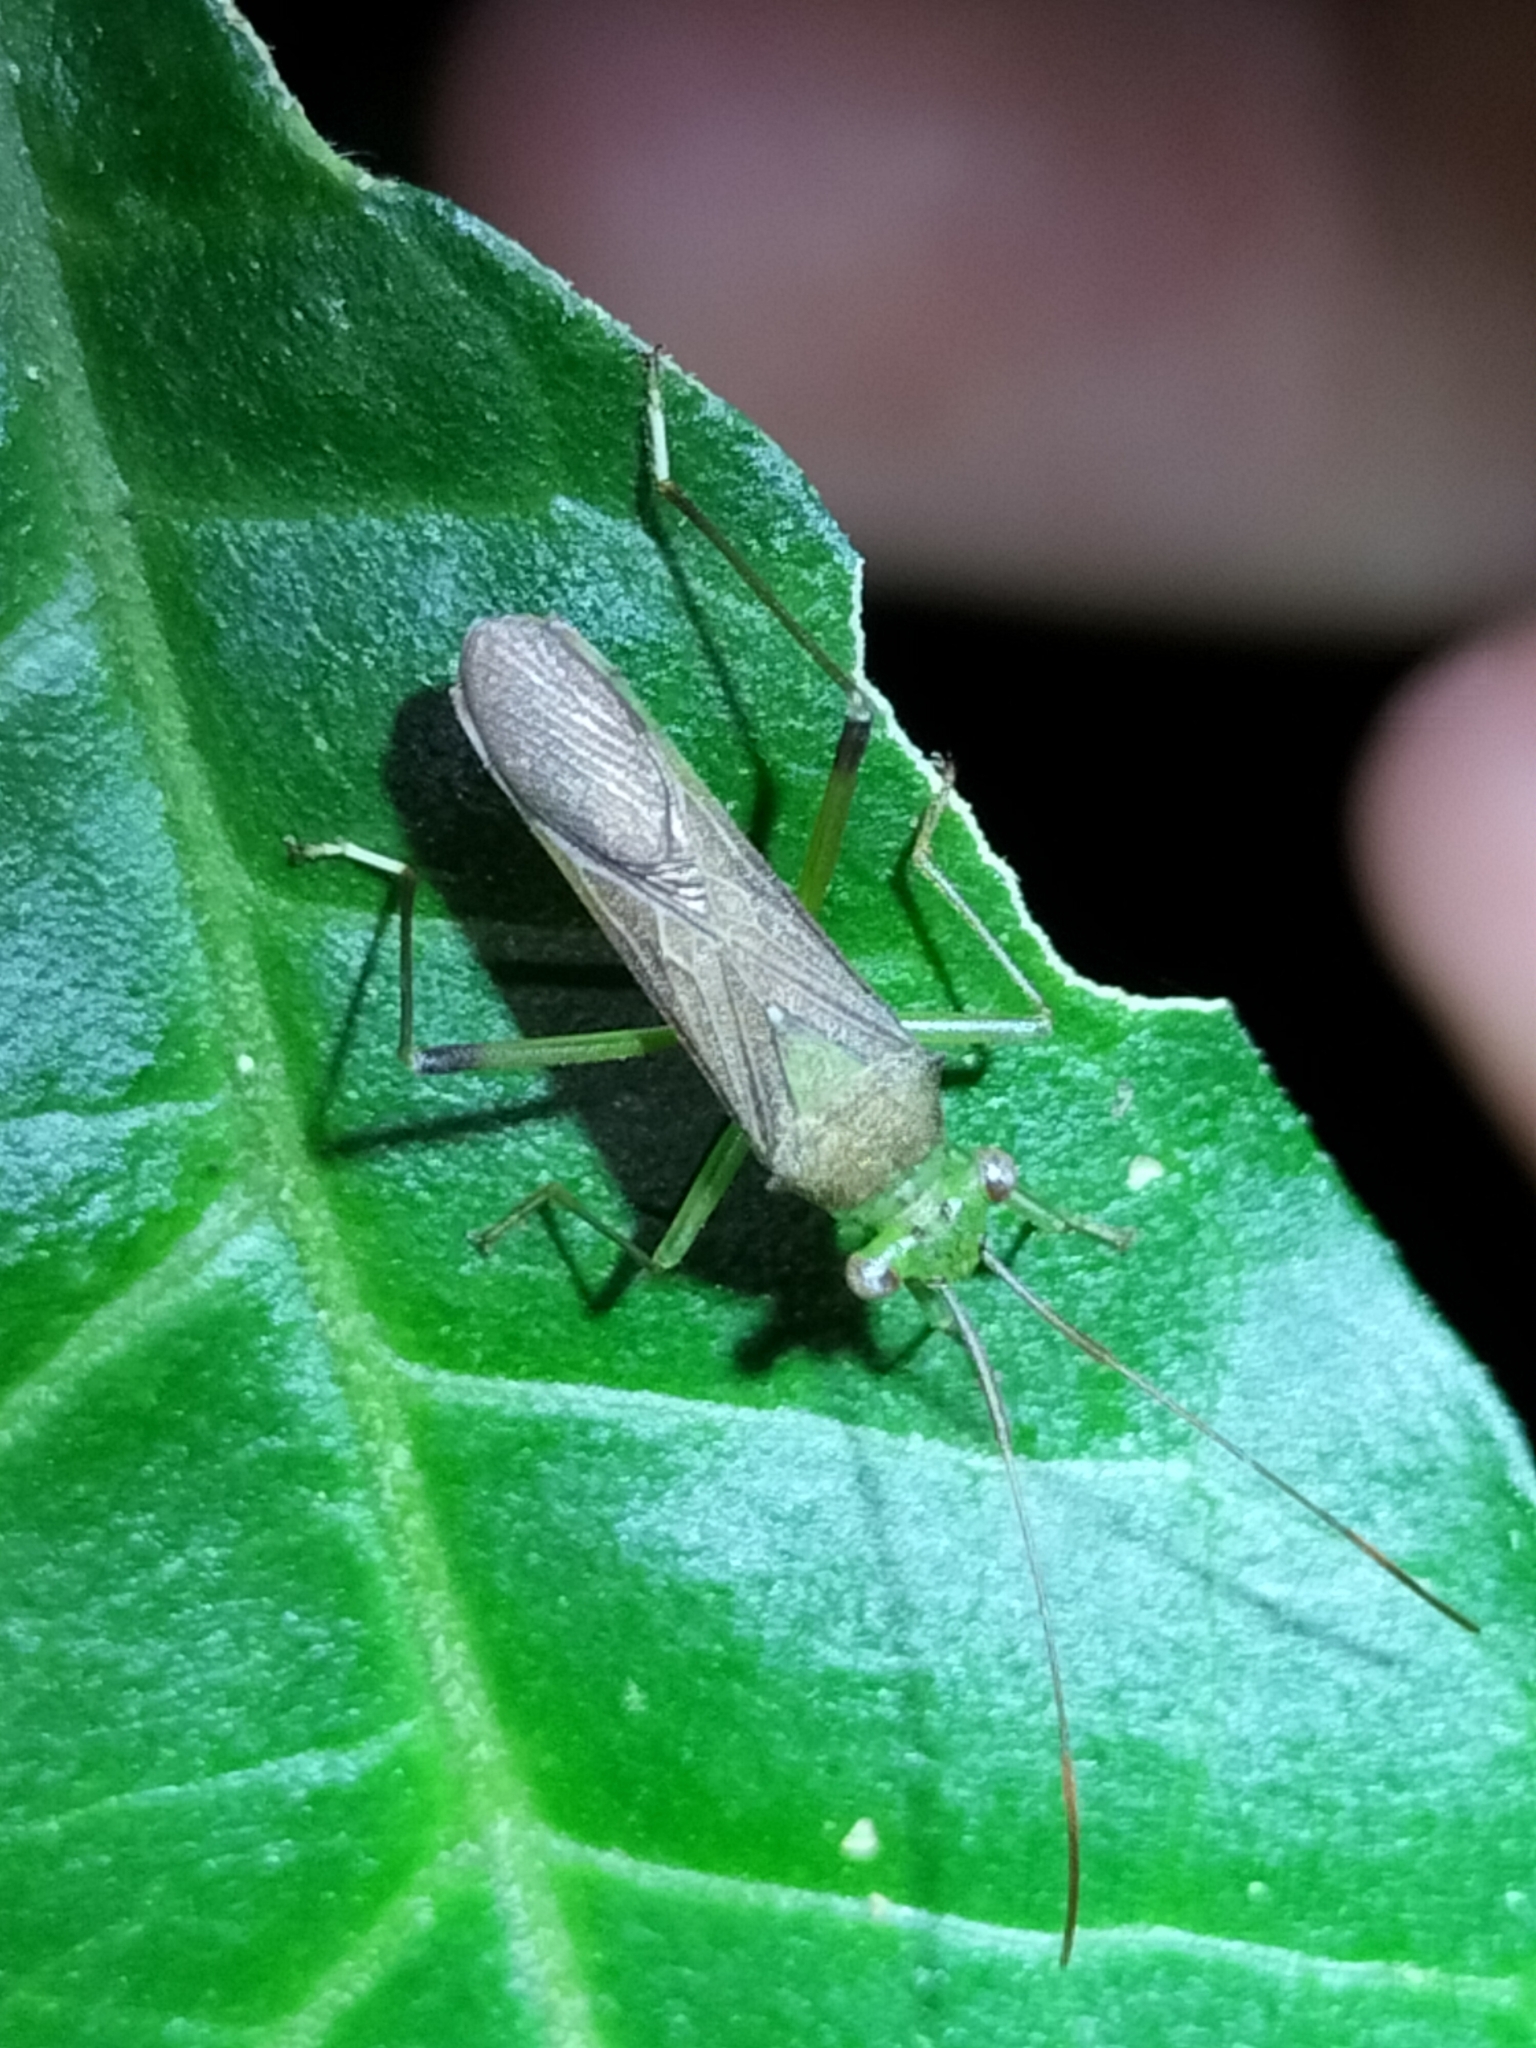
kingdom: Animalia
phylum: Arthropoda
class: Insecta
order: Hemiptera
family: Coreidae
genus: Piramurana
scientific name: Piramurana cyclops
